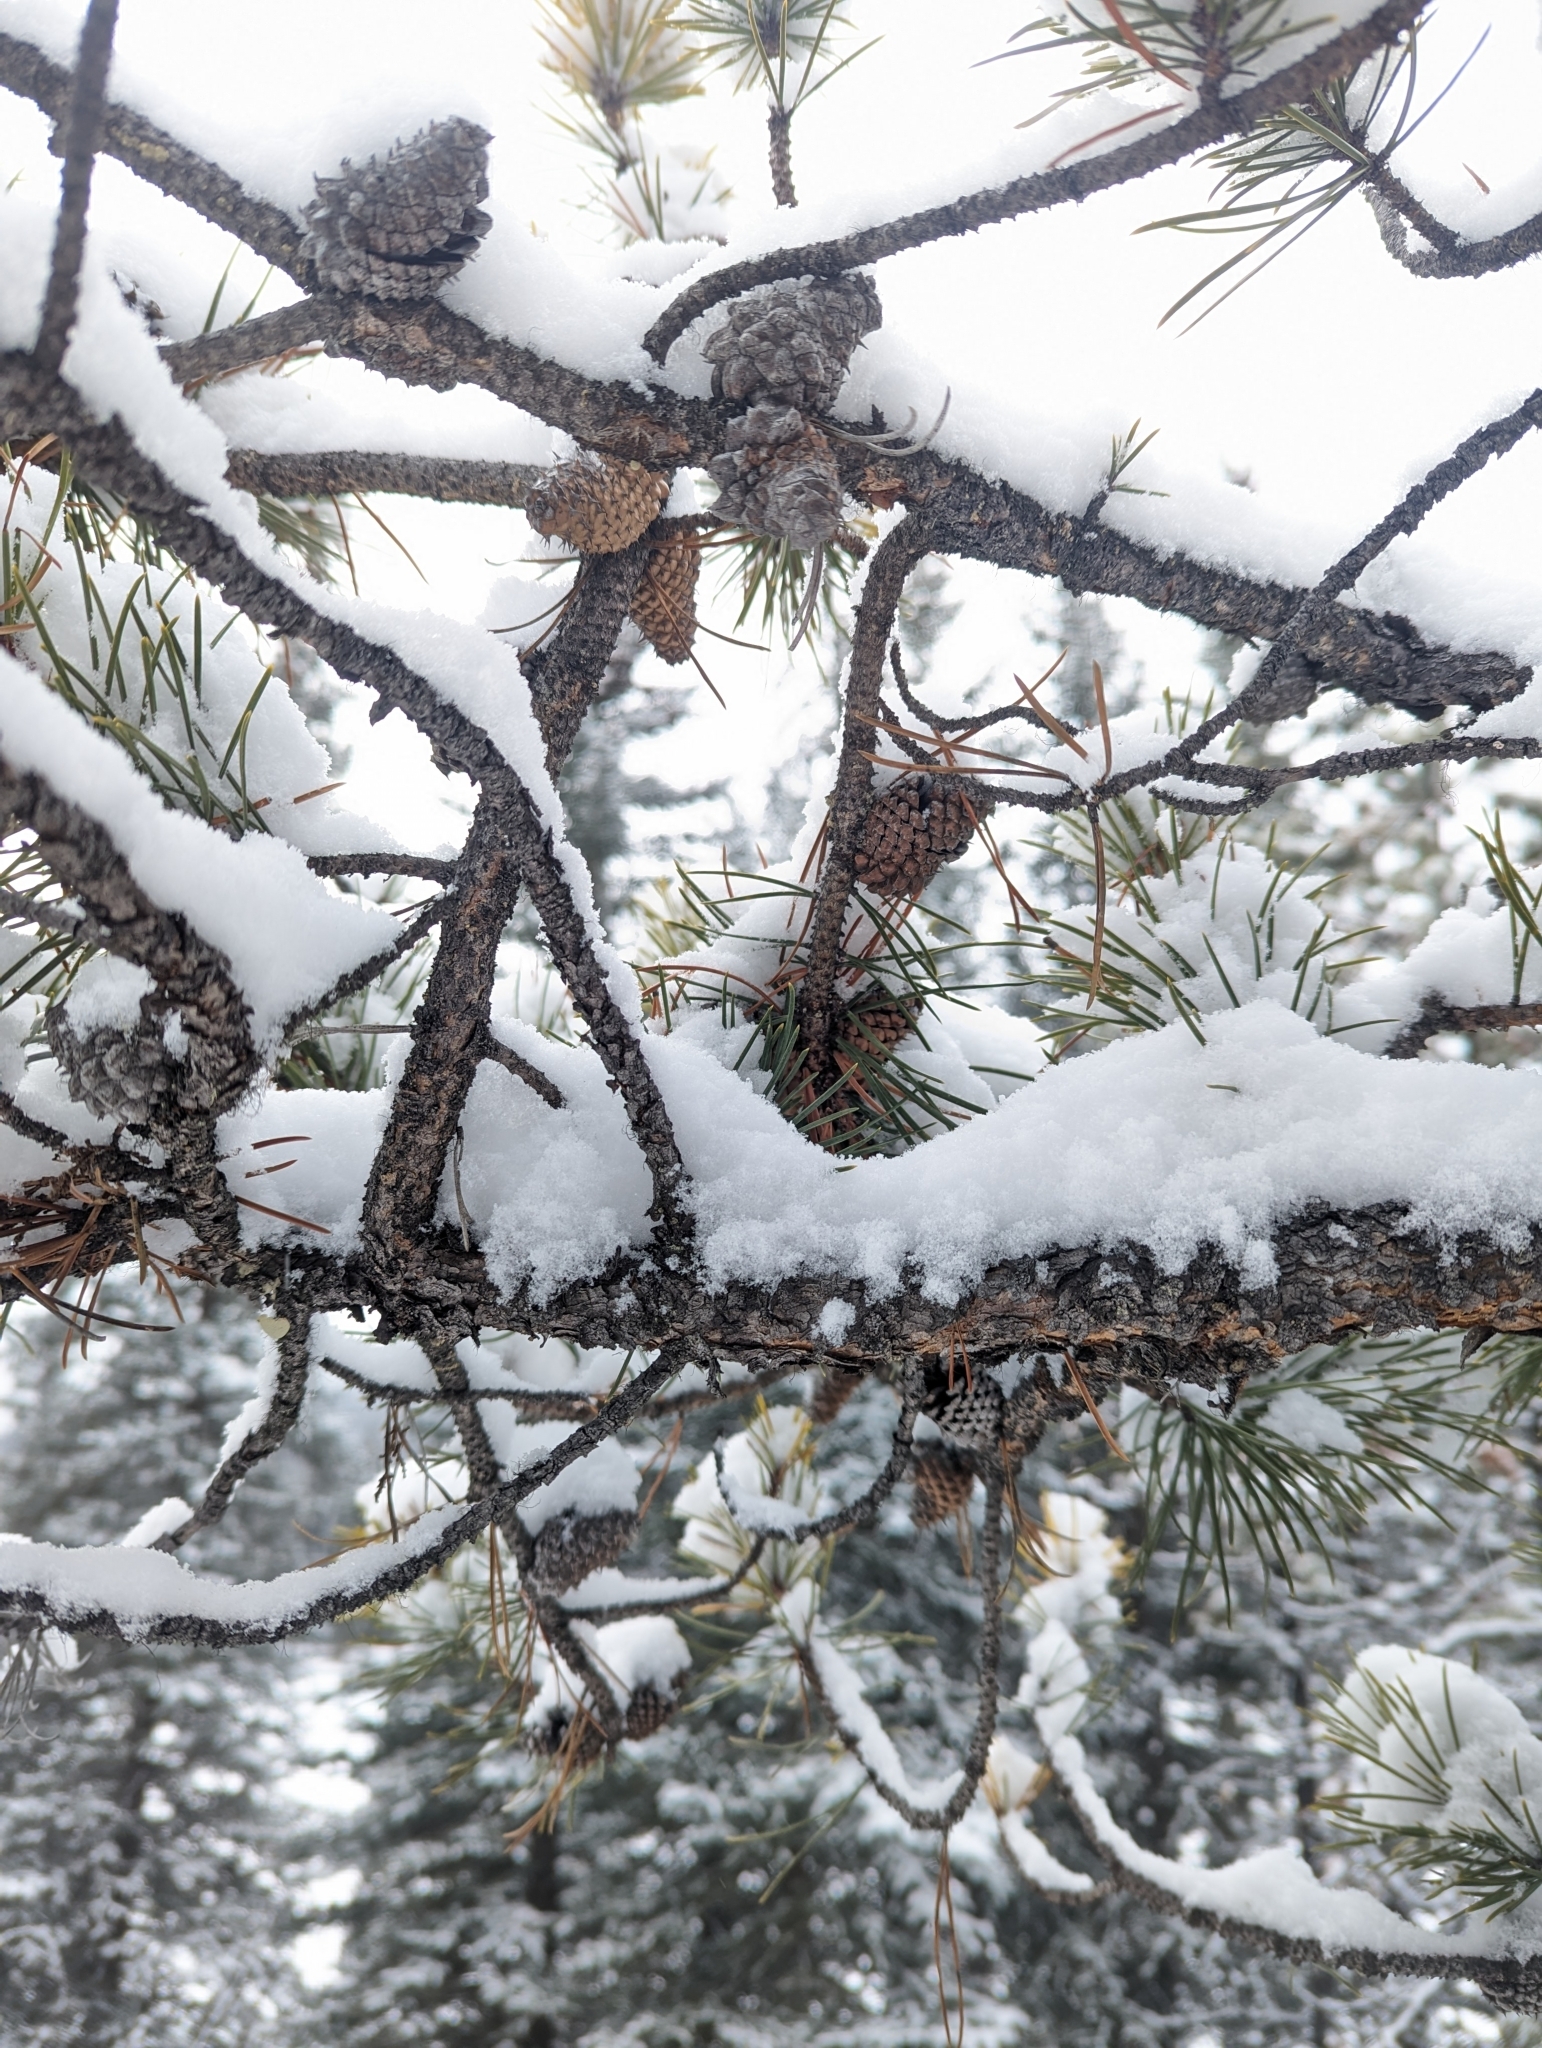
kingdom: Plantae
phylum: Tracheophyta
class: Pinopsida
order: Pinales
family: Pinaceae
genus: Pinus
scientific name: Pinus contorta
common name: Lodgepole pine
